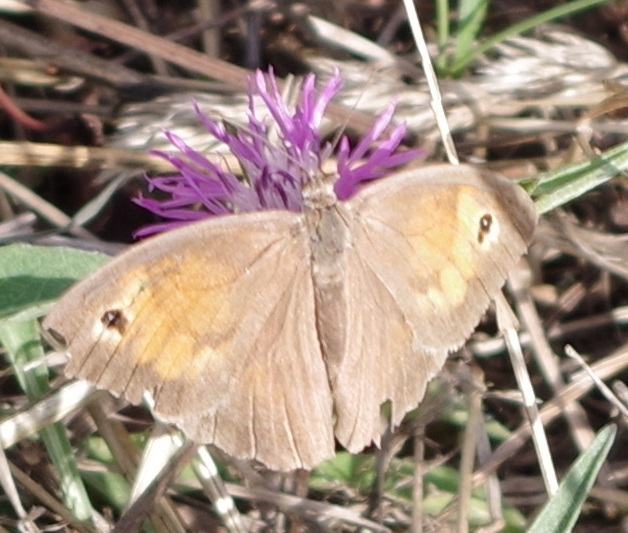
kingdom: Animalia
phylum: Arthropoda
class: Insecta
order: Lepidoptera
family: Nymphalidae
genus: Maniola
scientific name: Maniola jurtina
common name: Meadow brown
